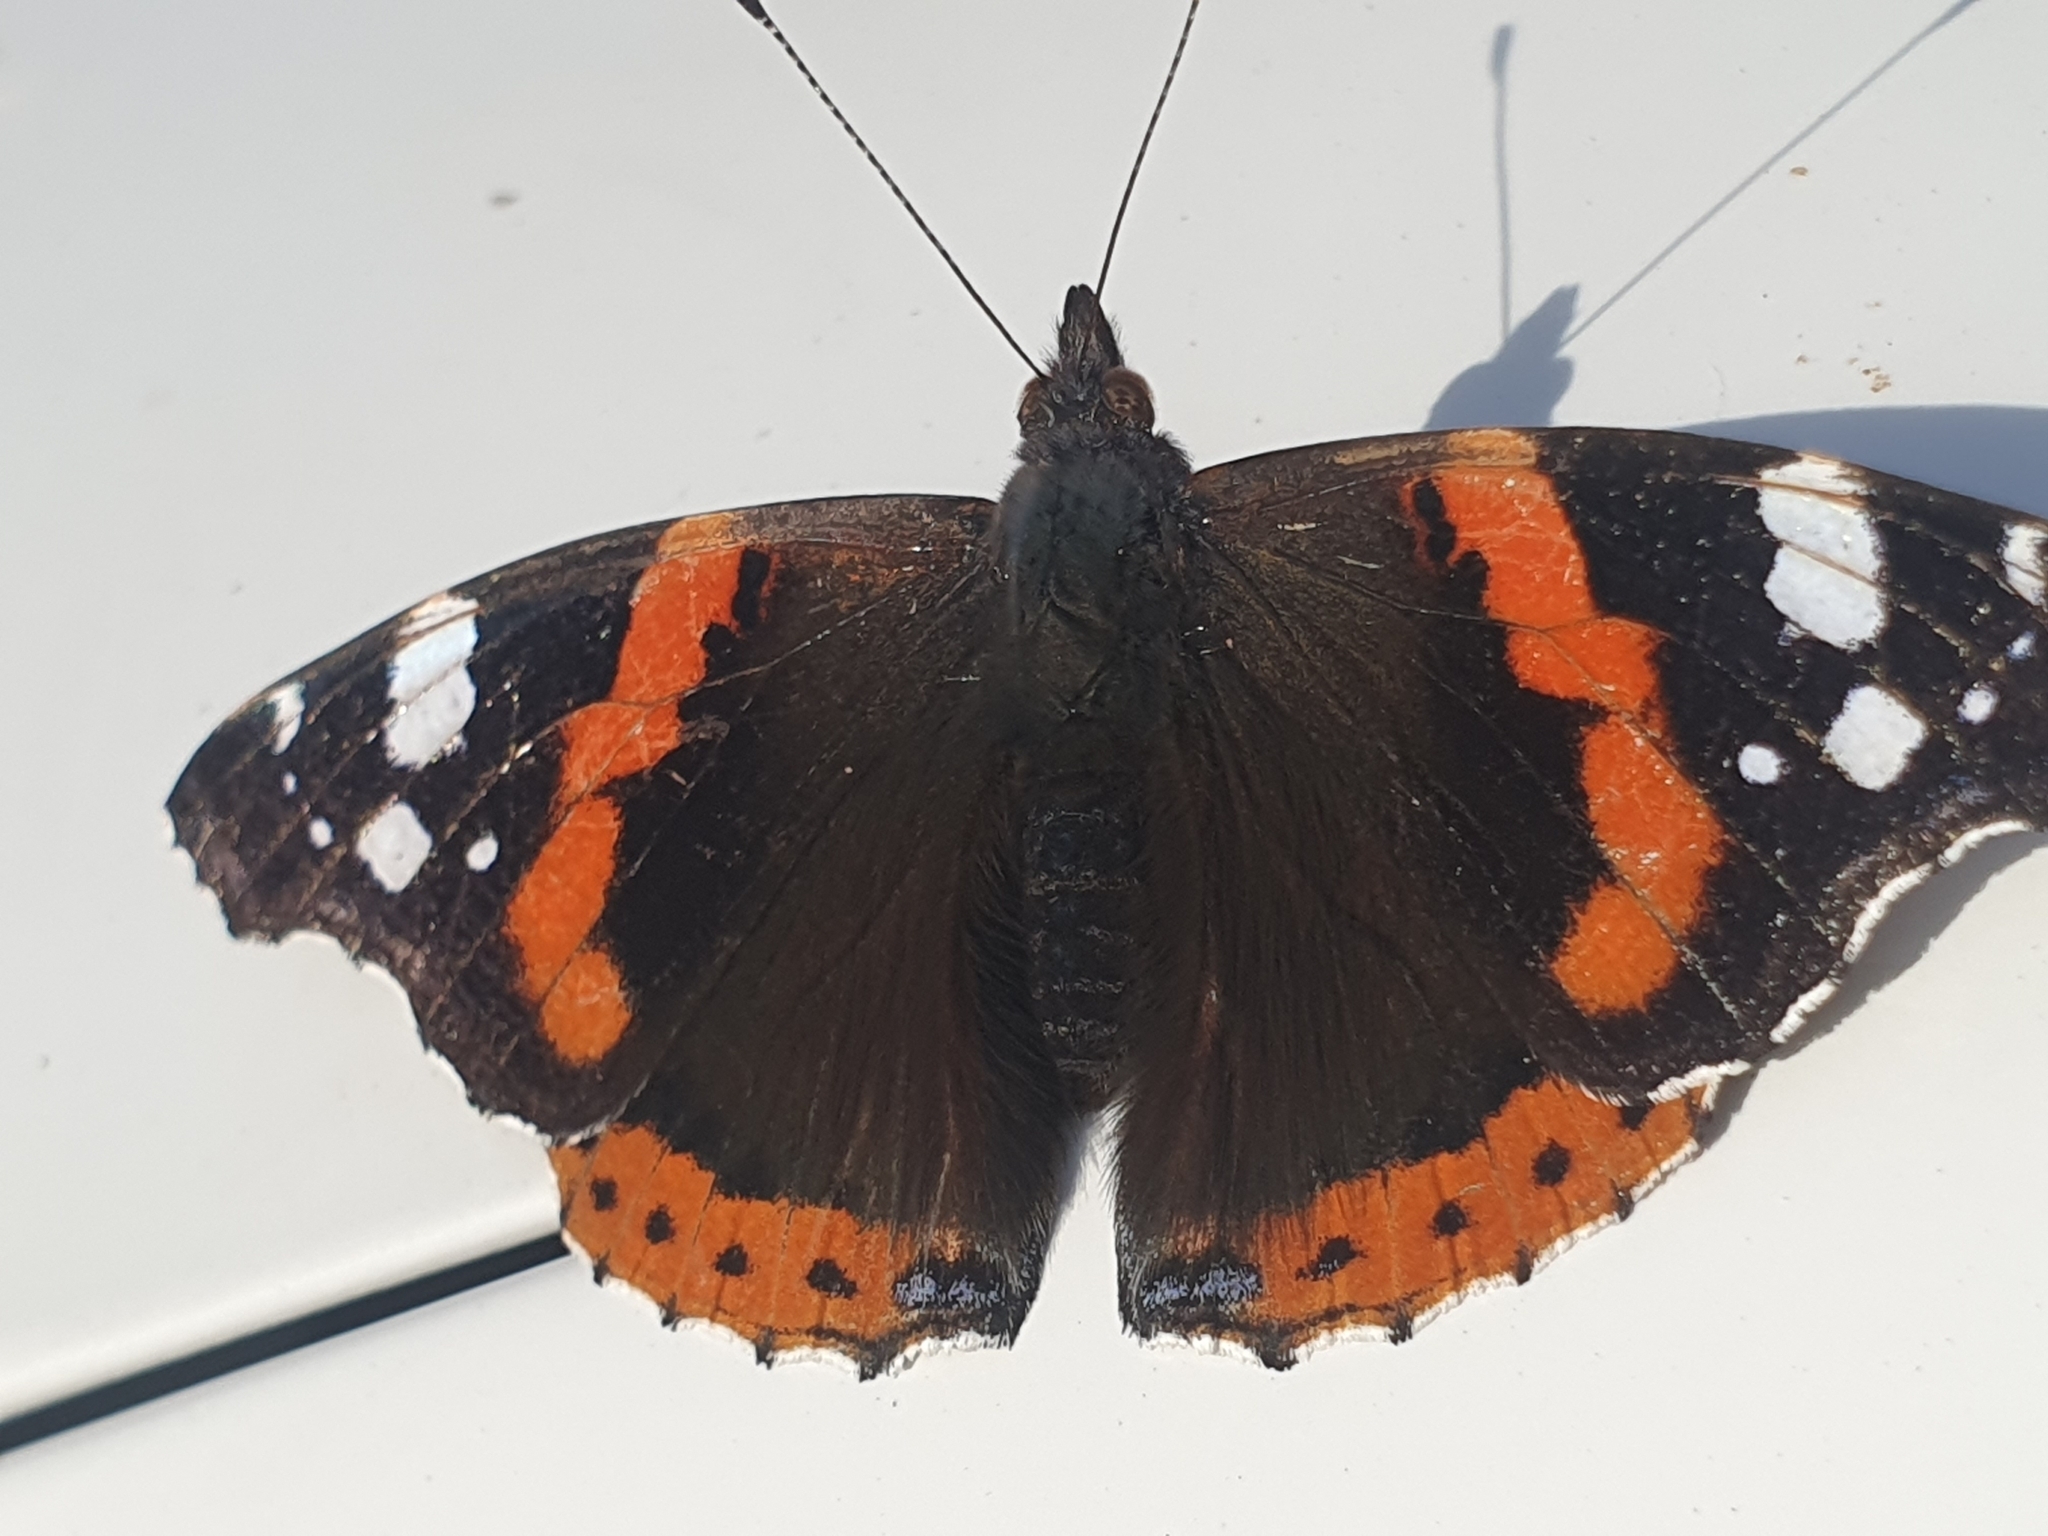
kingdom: Animalia
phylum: Arthropoda
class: Insecta
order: Lepidoptera
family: Nymphalidae
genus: Vanessa
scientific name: Vanessa atalanta
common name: Red admiral
